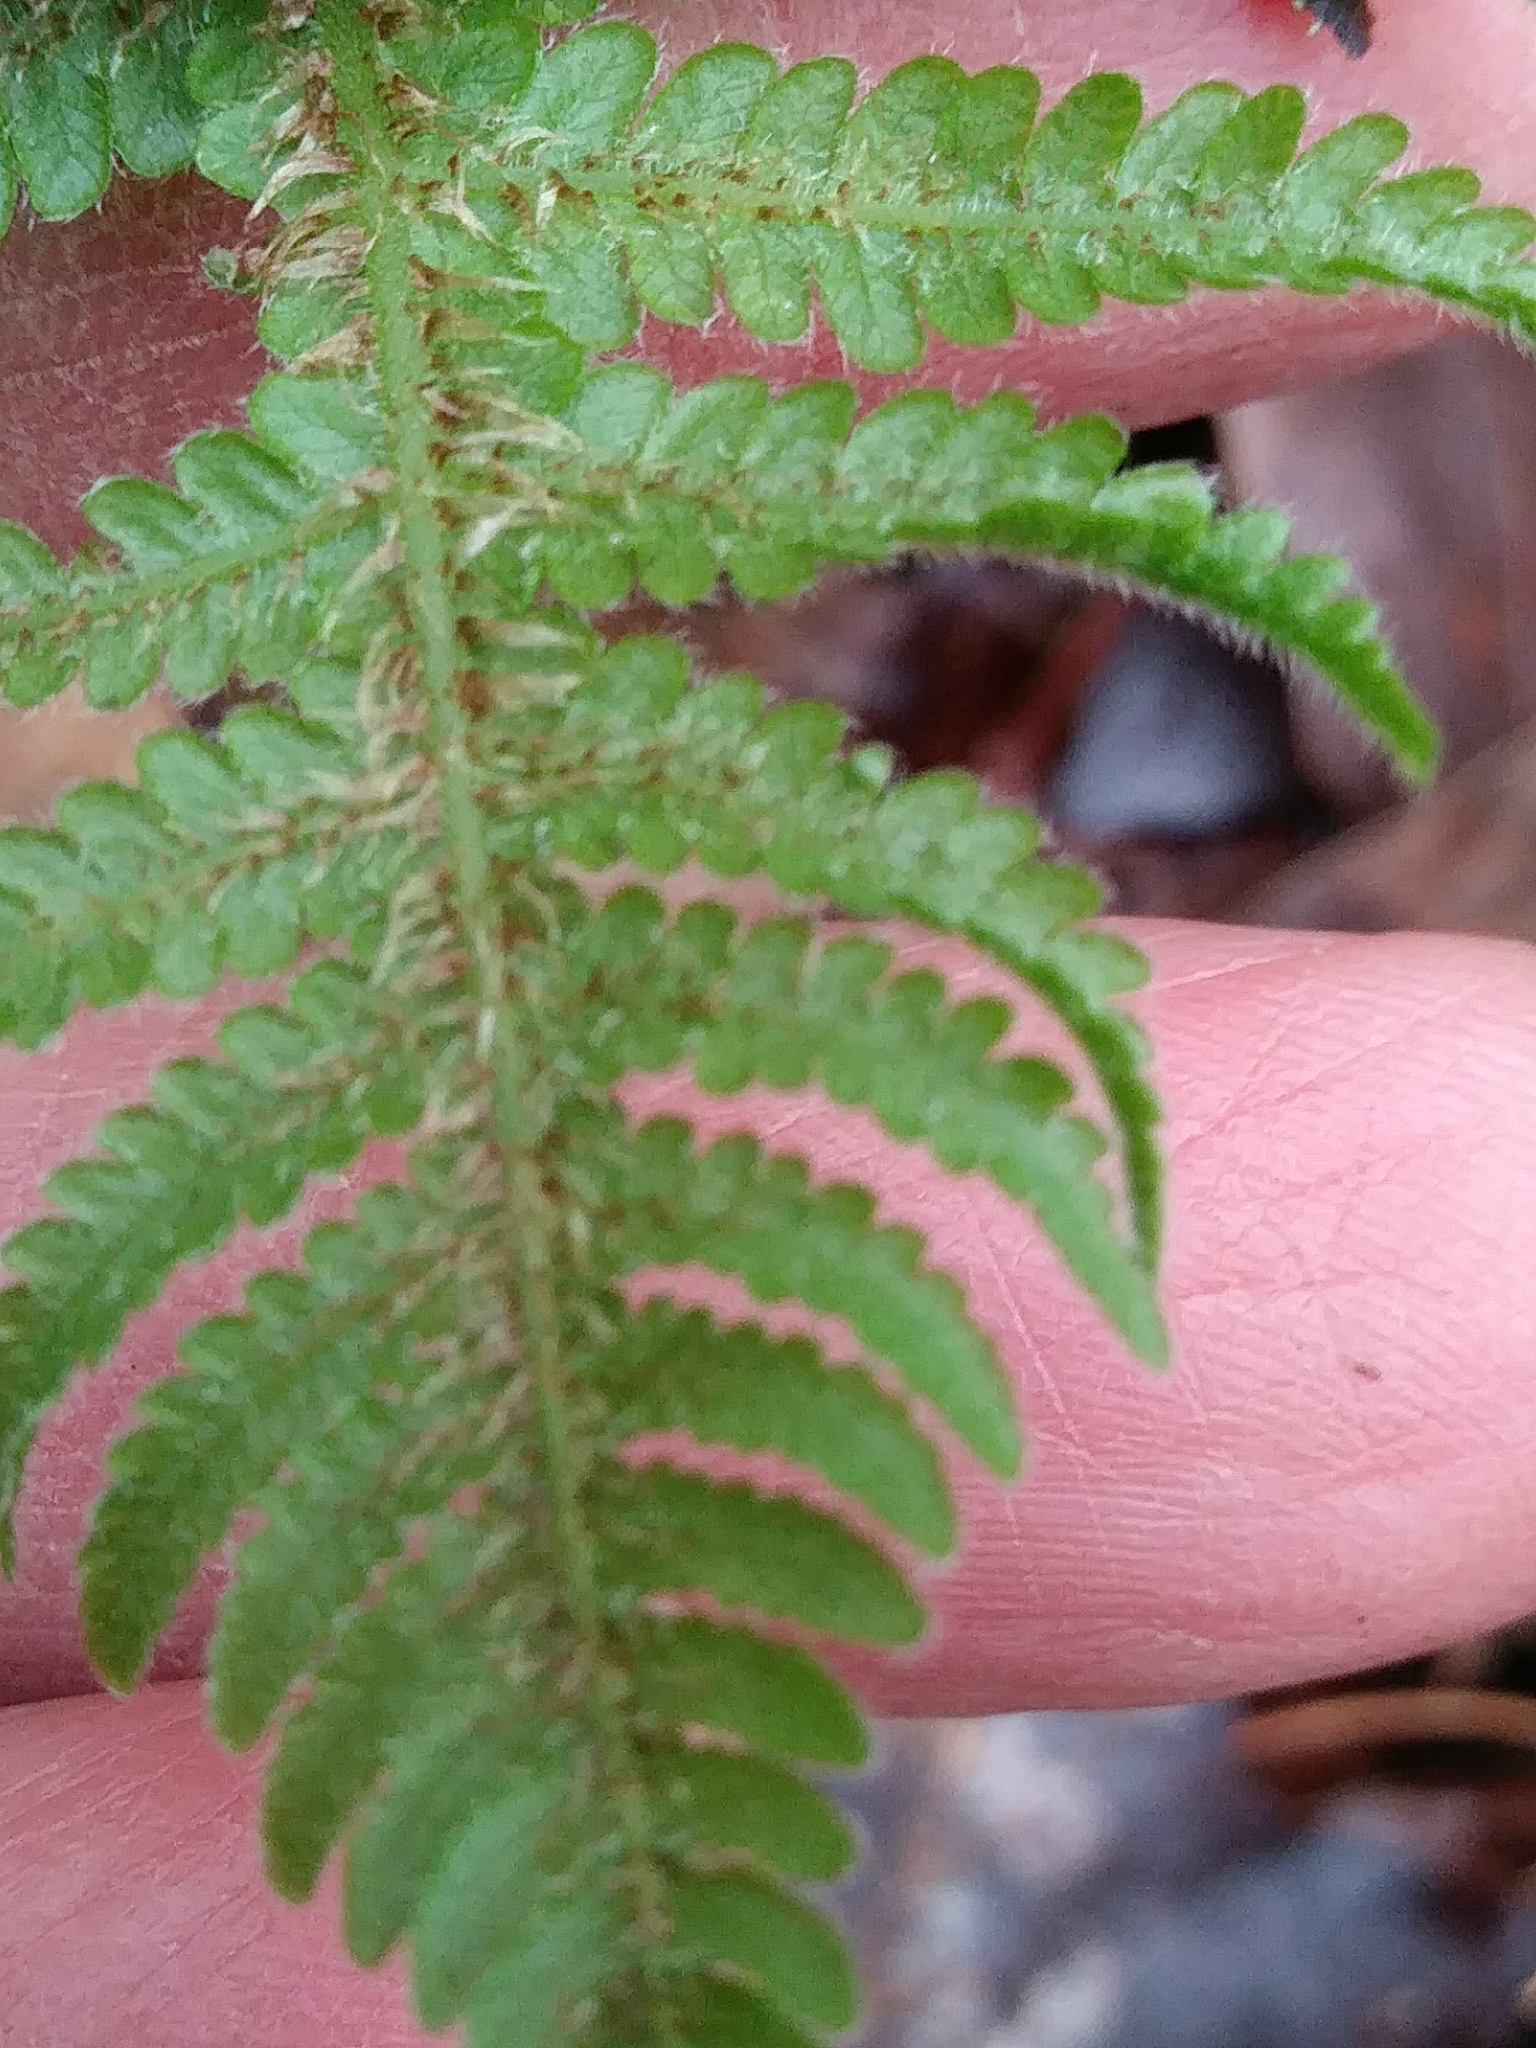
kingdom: Plantae
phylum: Tracheophyta
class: Polypodiopsida
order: Polypodiales
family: Thelypteridaceae
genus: Phegopteris
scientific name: Phegopteris connectilis
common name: Beech fern
